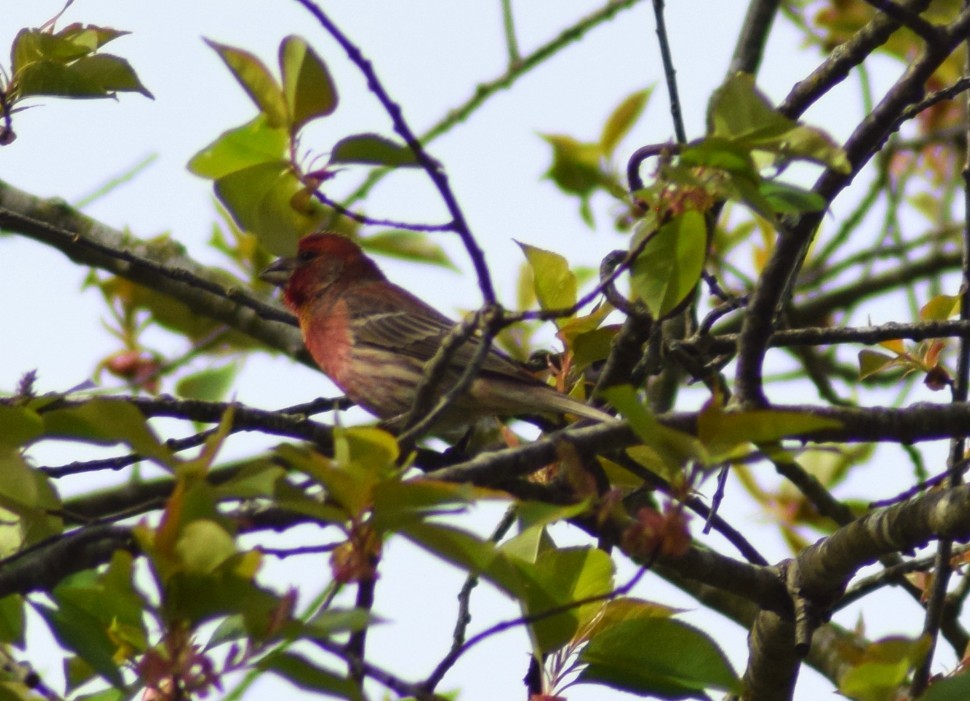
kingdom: Animalia
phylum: Chordata
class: Aves
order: Passeriformes
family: Fringillidae
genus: Haemorhous
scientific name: Haemorhous mexicanus
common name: House finch
